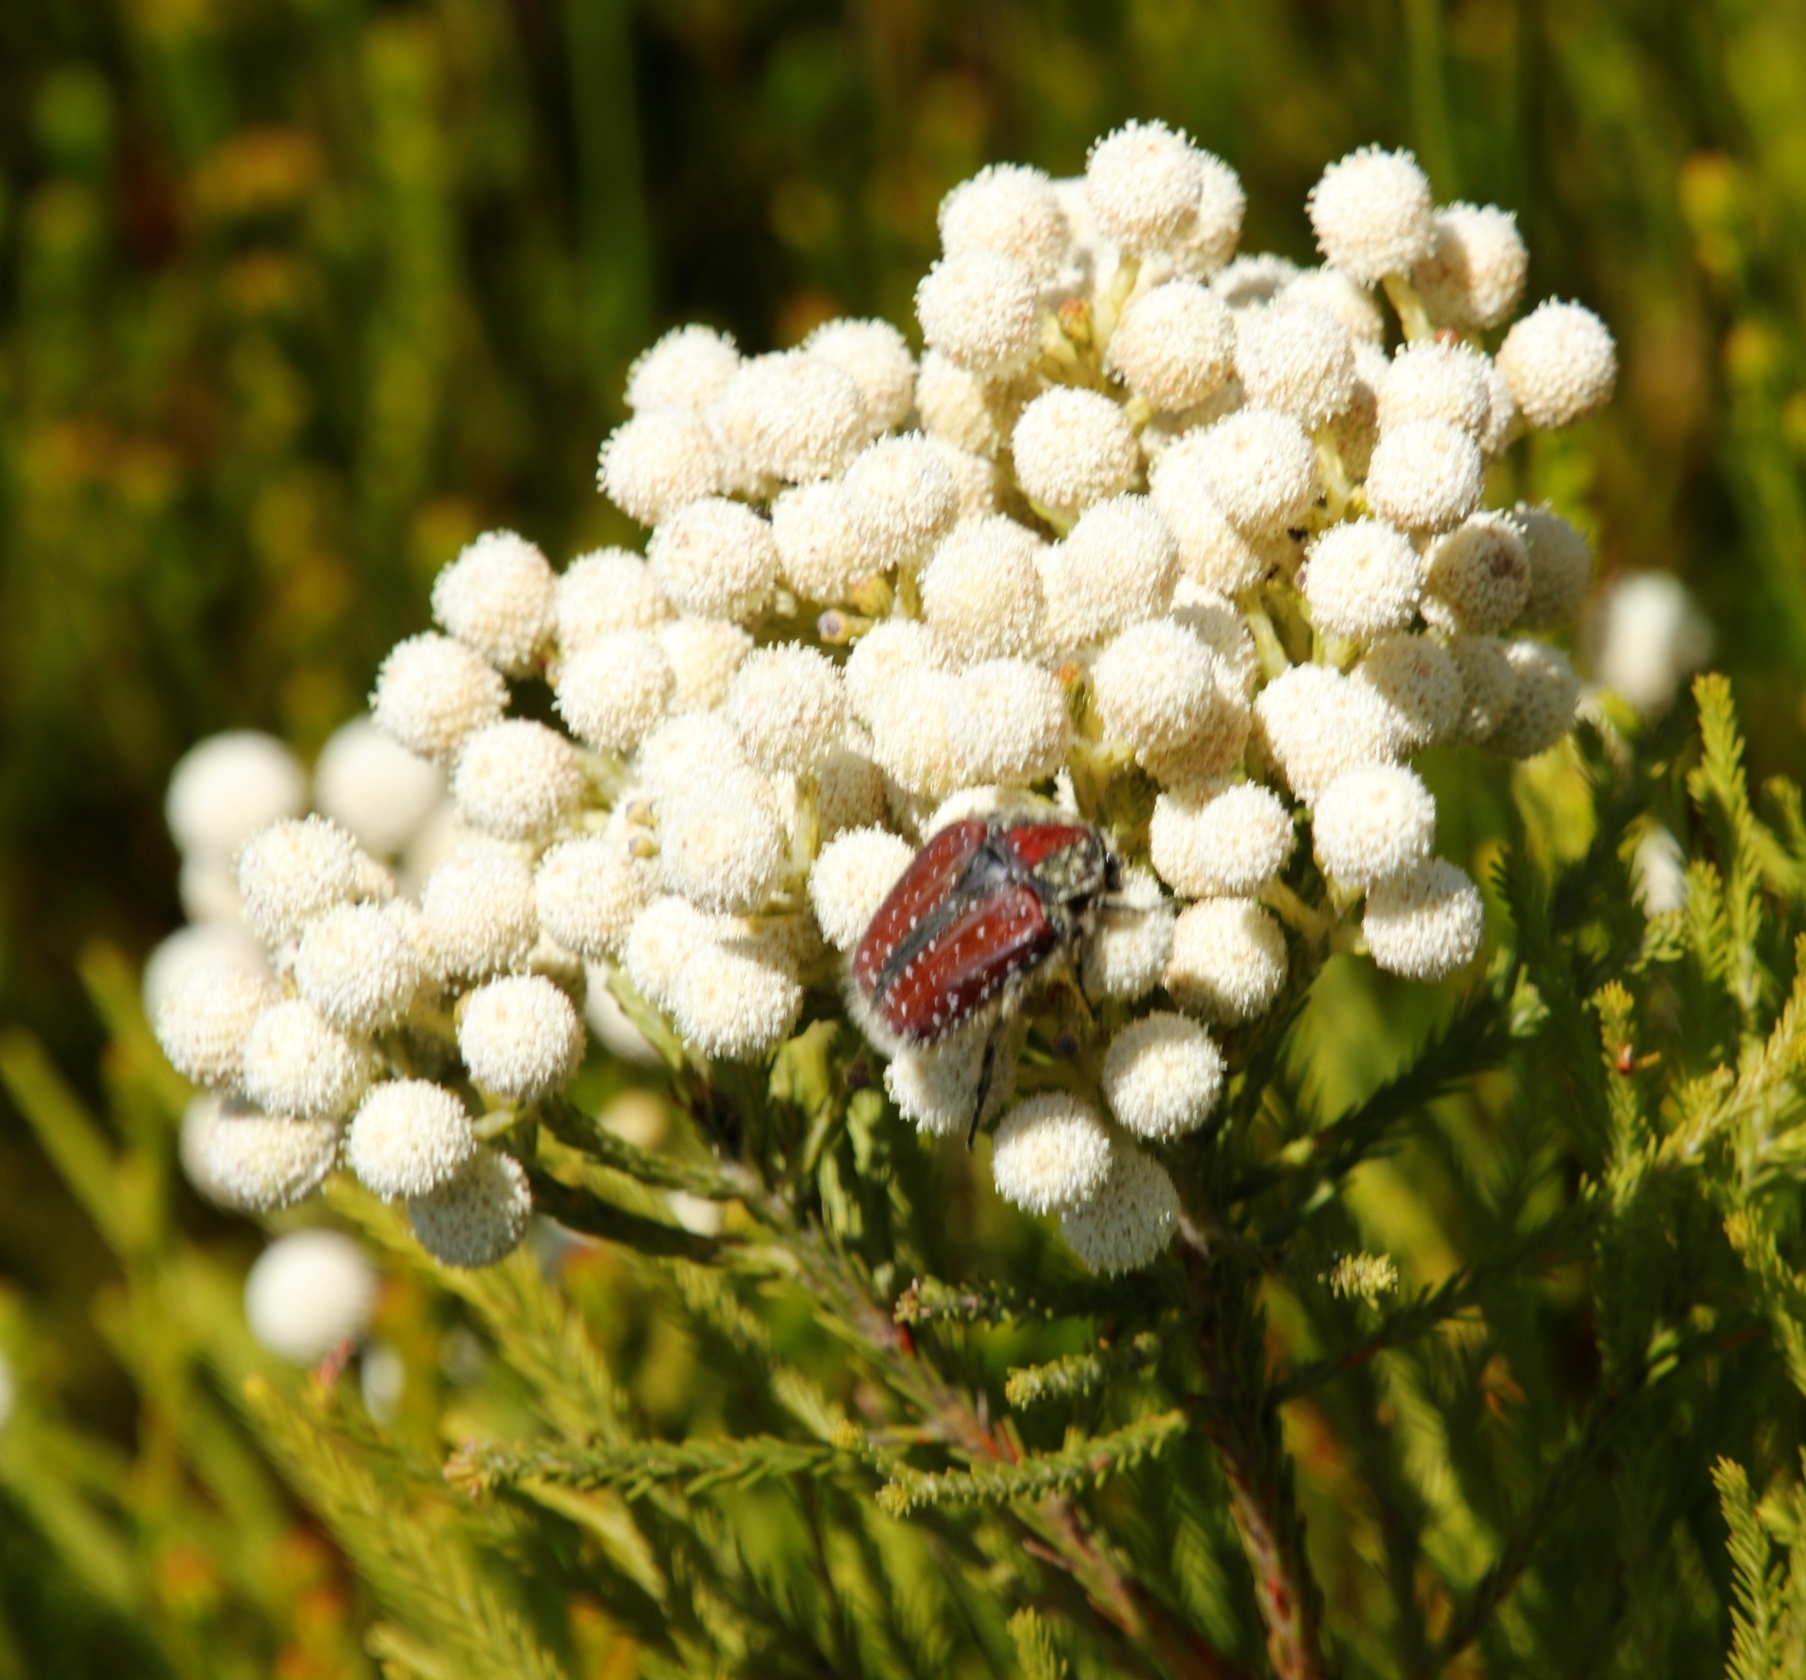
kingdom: Animalia
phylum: Arthropoda
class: Insecta
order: Coleoptera
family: Scarabaeidae
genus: Trichostetha
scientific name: Trichostetha capensis
